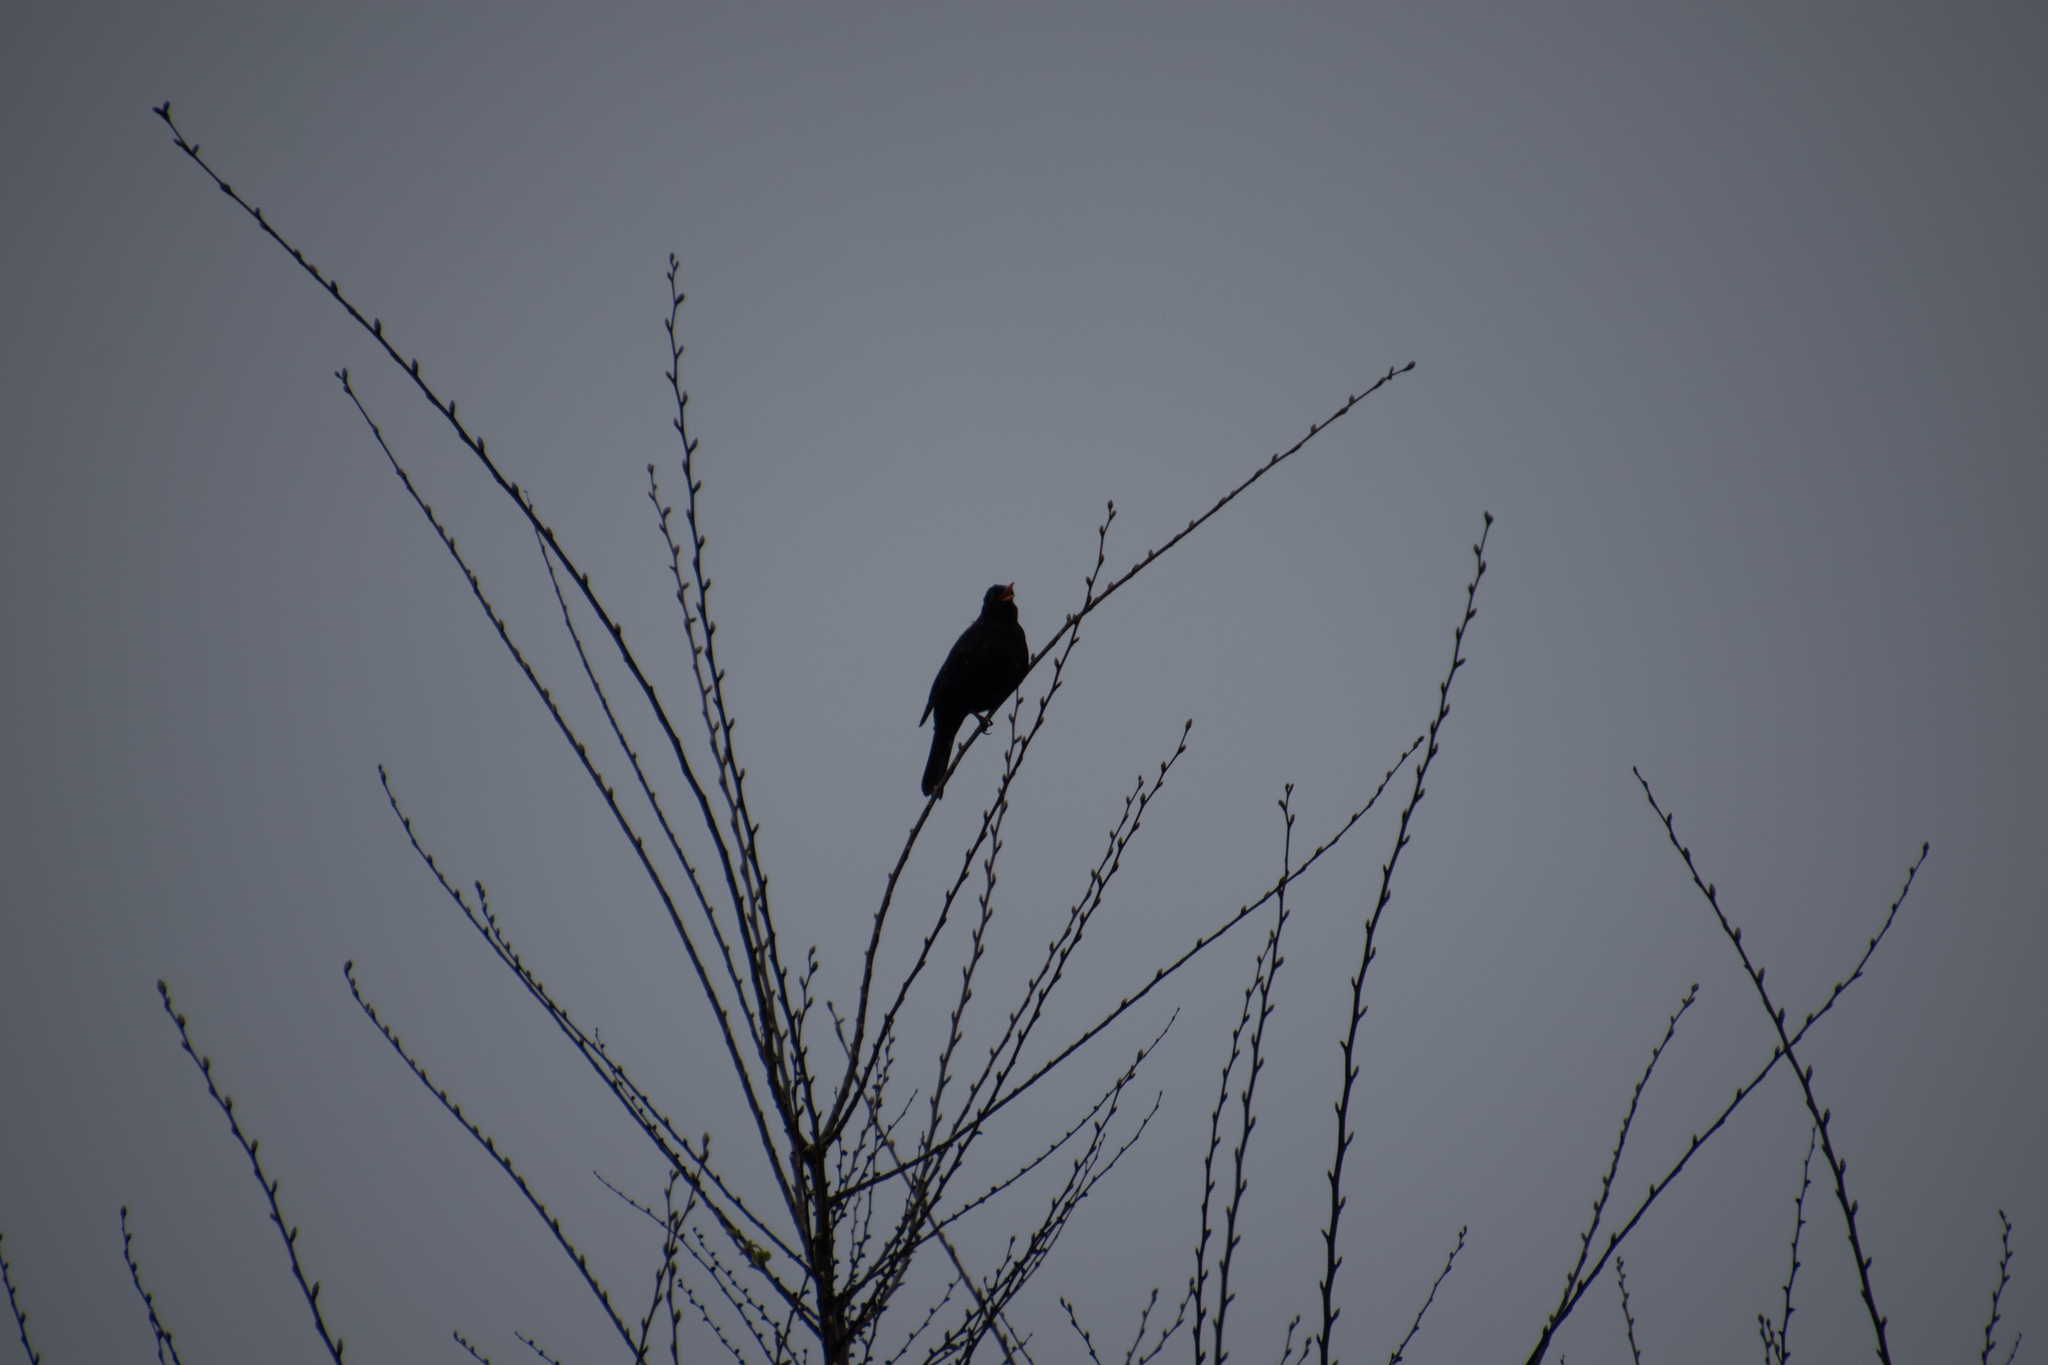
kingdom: Animalia
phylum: Chordata
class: Aves
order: Passeriformes
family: Turdidae
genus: Turdus
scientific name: Turdus merula
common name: Common blackbird
